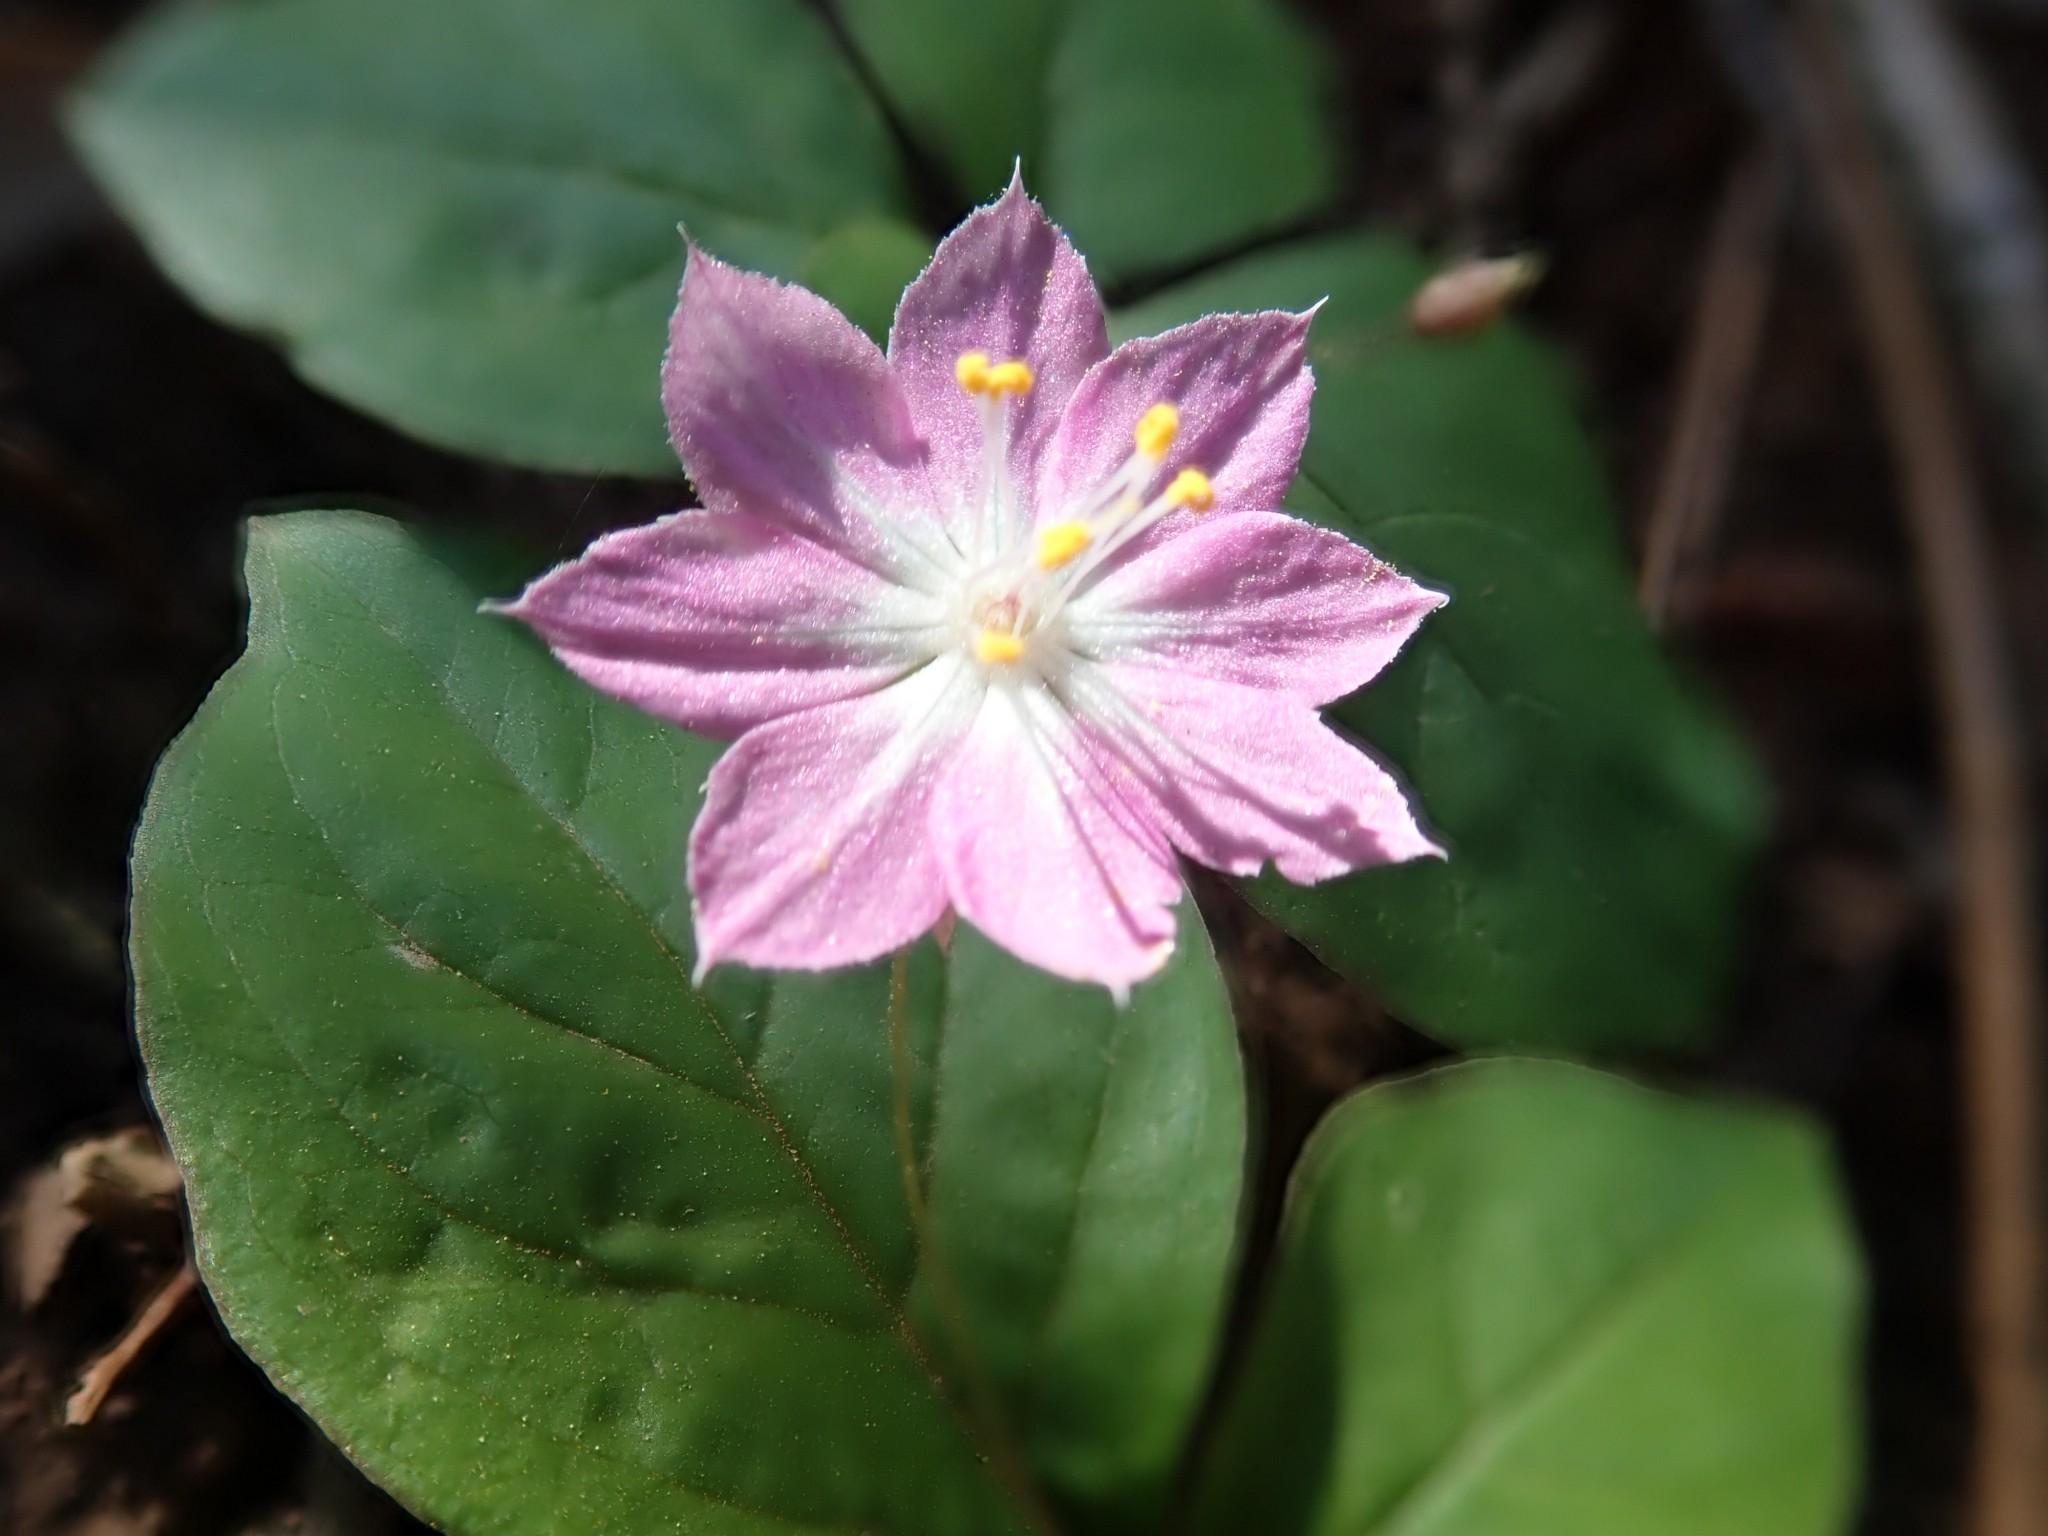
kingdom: Plantae
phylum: Tracheophyta
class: Magnoliopsida
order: Ericales
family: Primulaceae
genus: Lysimachia
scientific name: Lysimachia latifolia
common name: Pacific starflower
